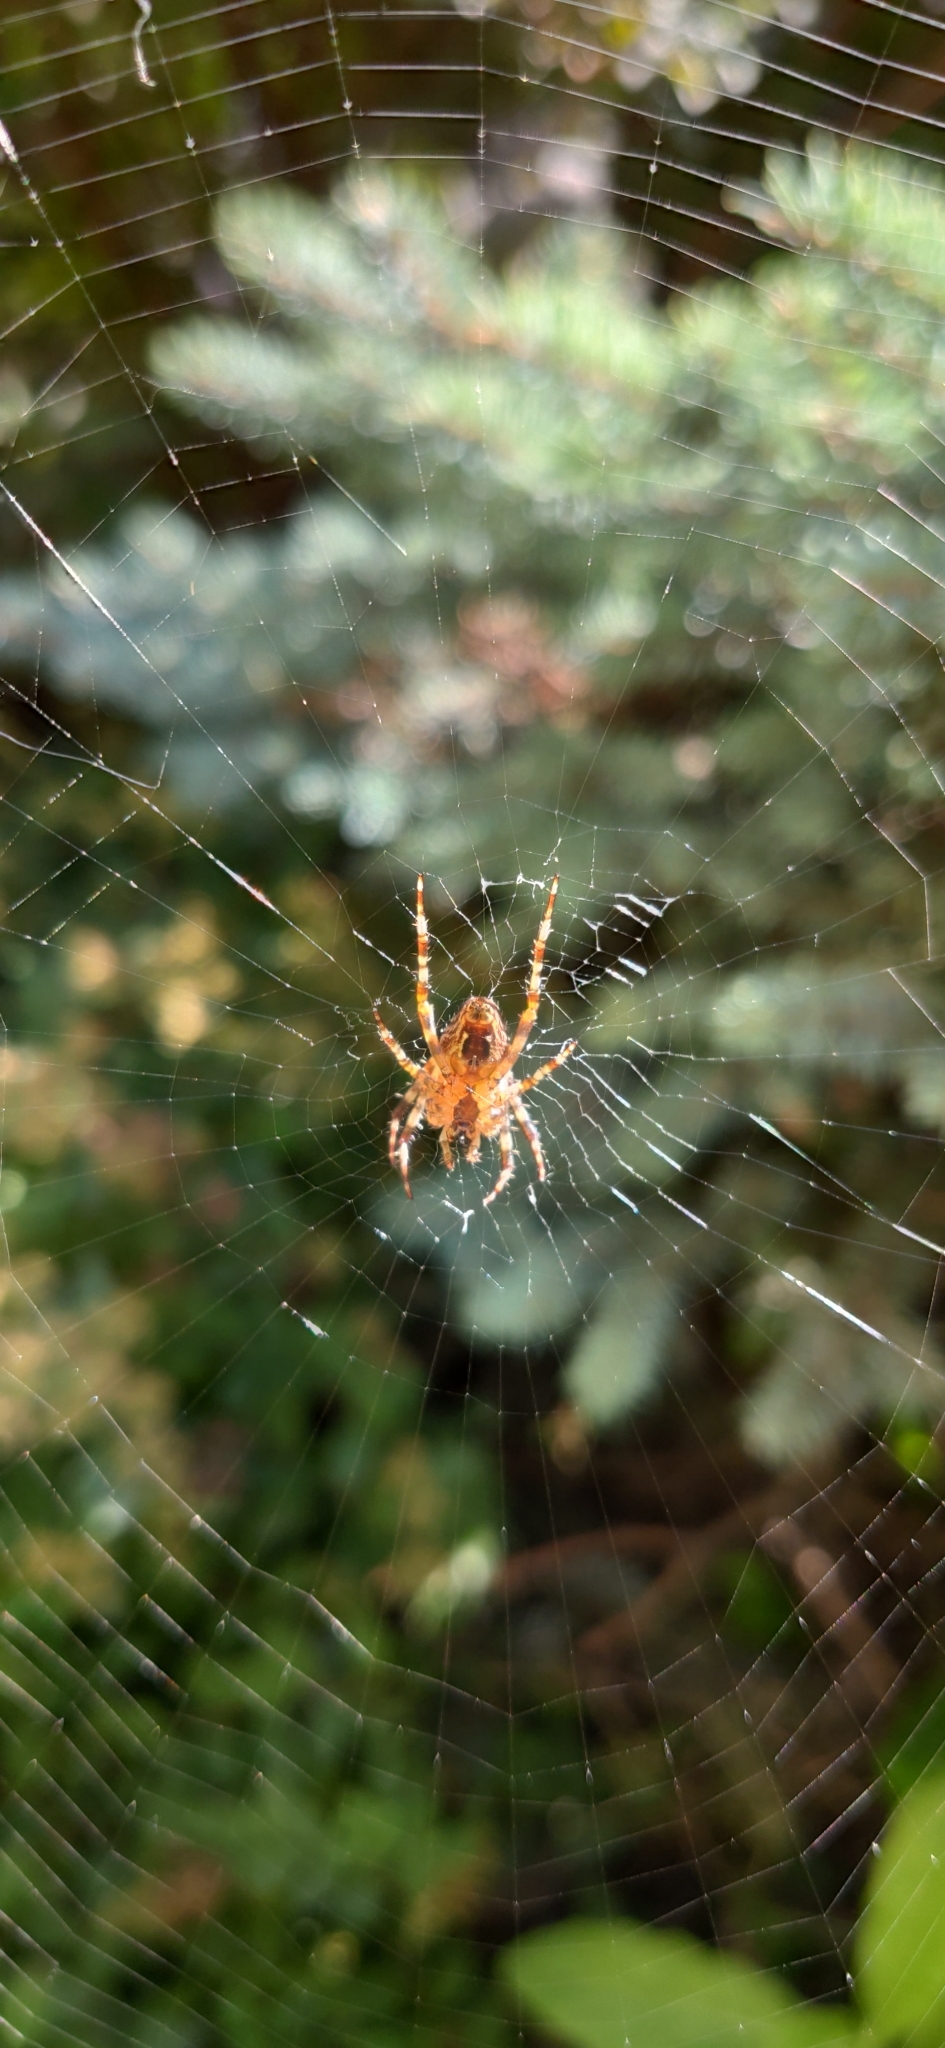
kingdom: Animalia
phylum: Arthropoda
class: Arachnida
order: Araneae
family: Araneidae
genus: Araneus
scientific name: Araneus diadematus
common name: Cross orbweaver
